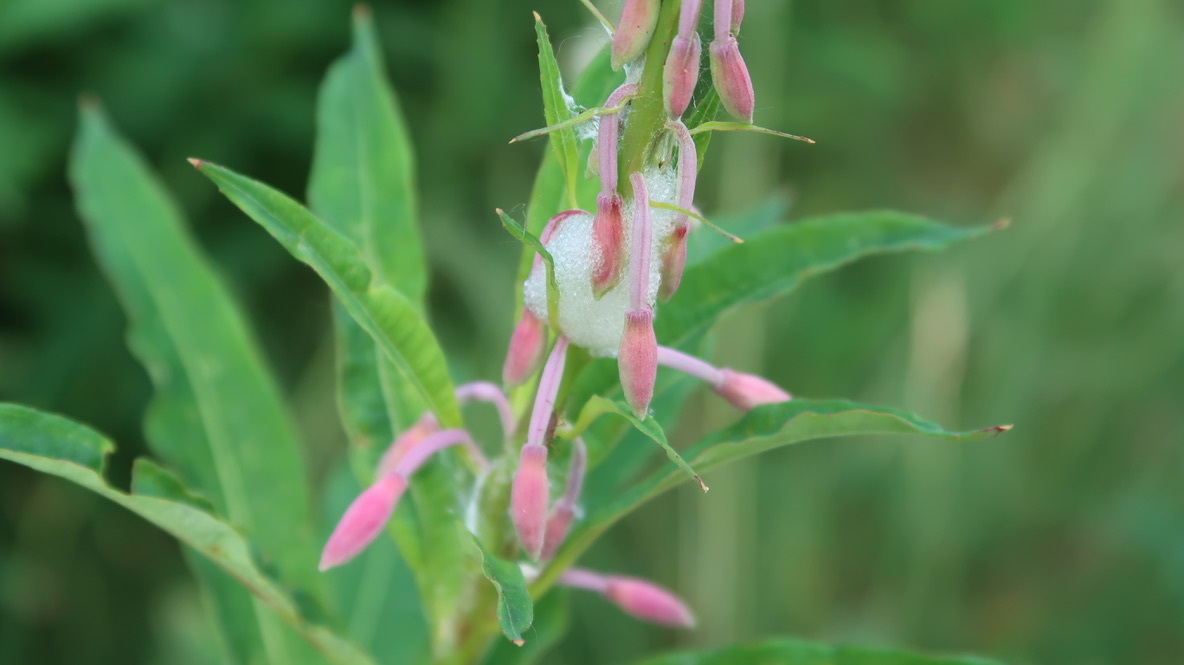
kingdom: Plantae
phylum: Tracheophyta
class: Magnoliopsida
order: Myrtales
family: Onagraceae
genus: Chamaenerion
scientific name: Chamaenerion angustifolium
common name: Fireweed
